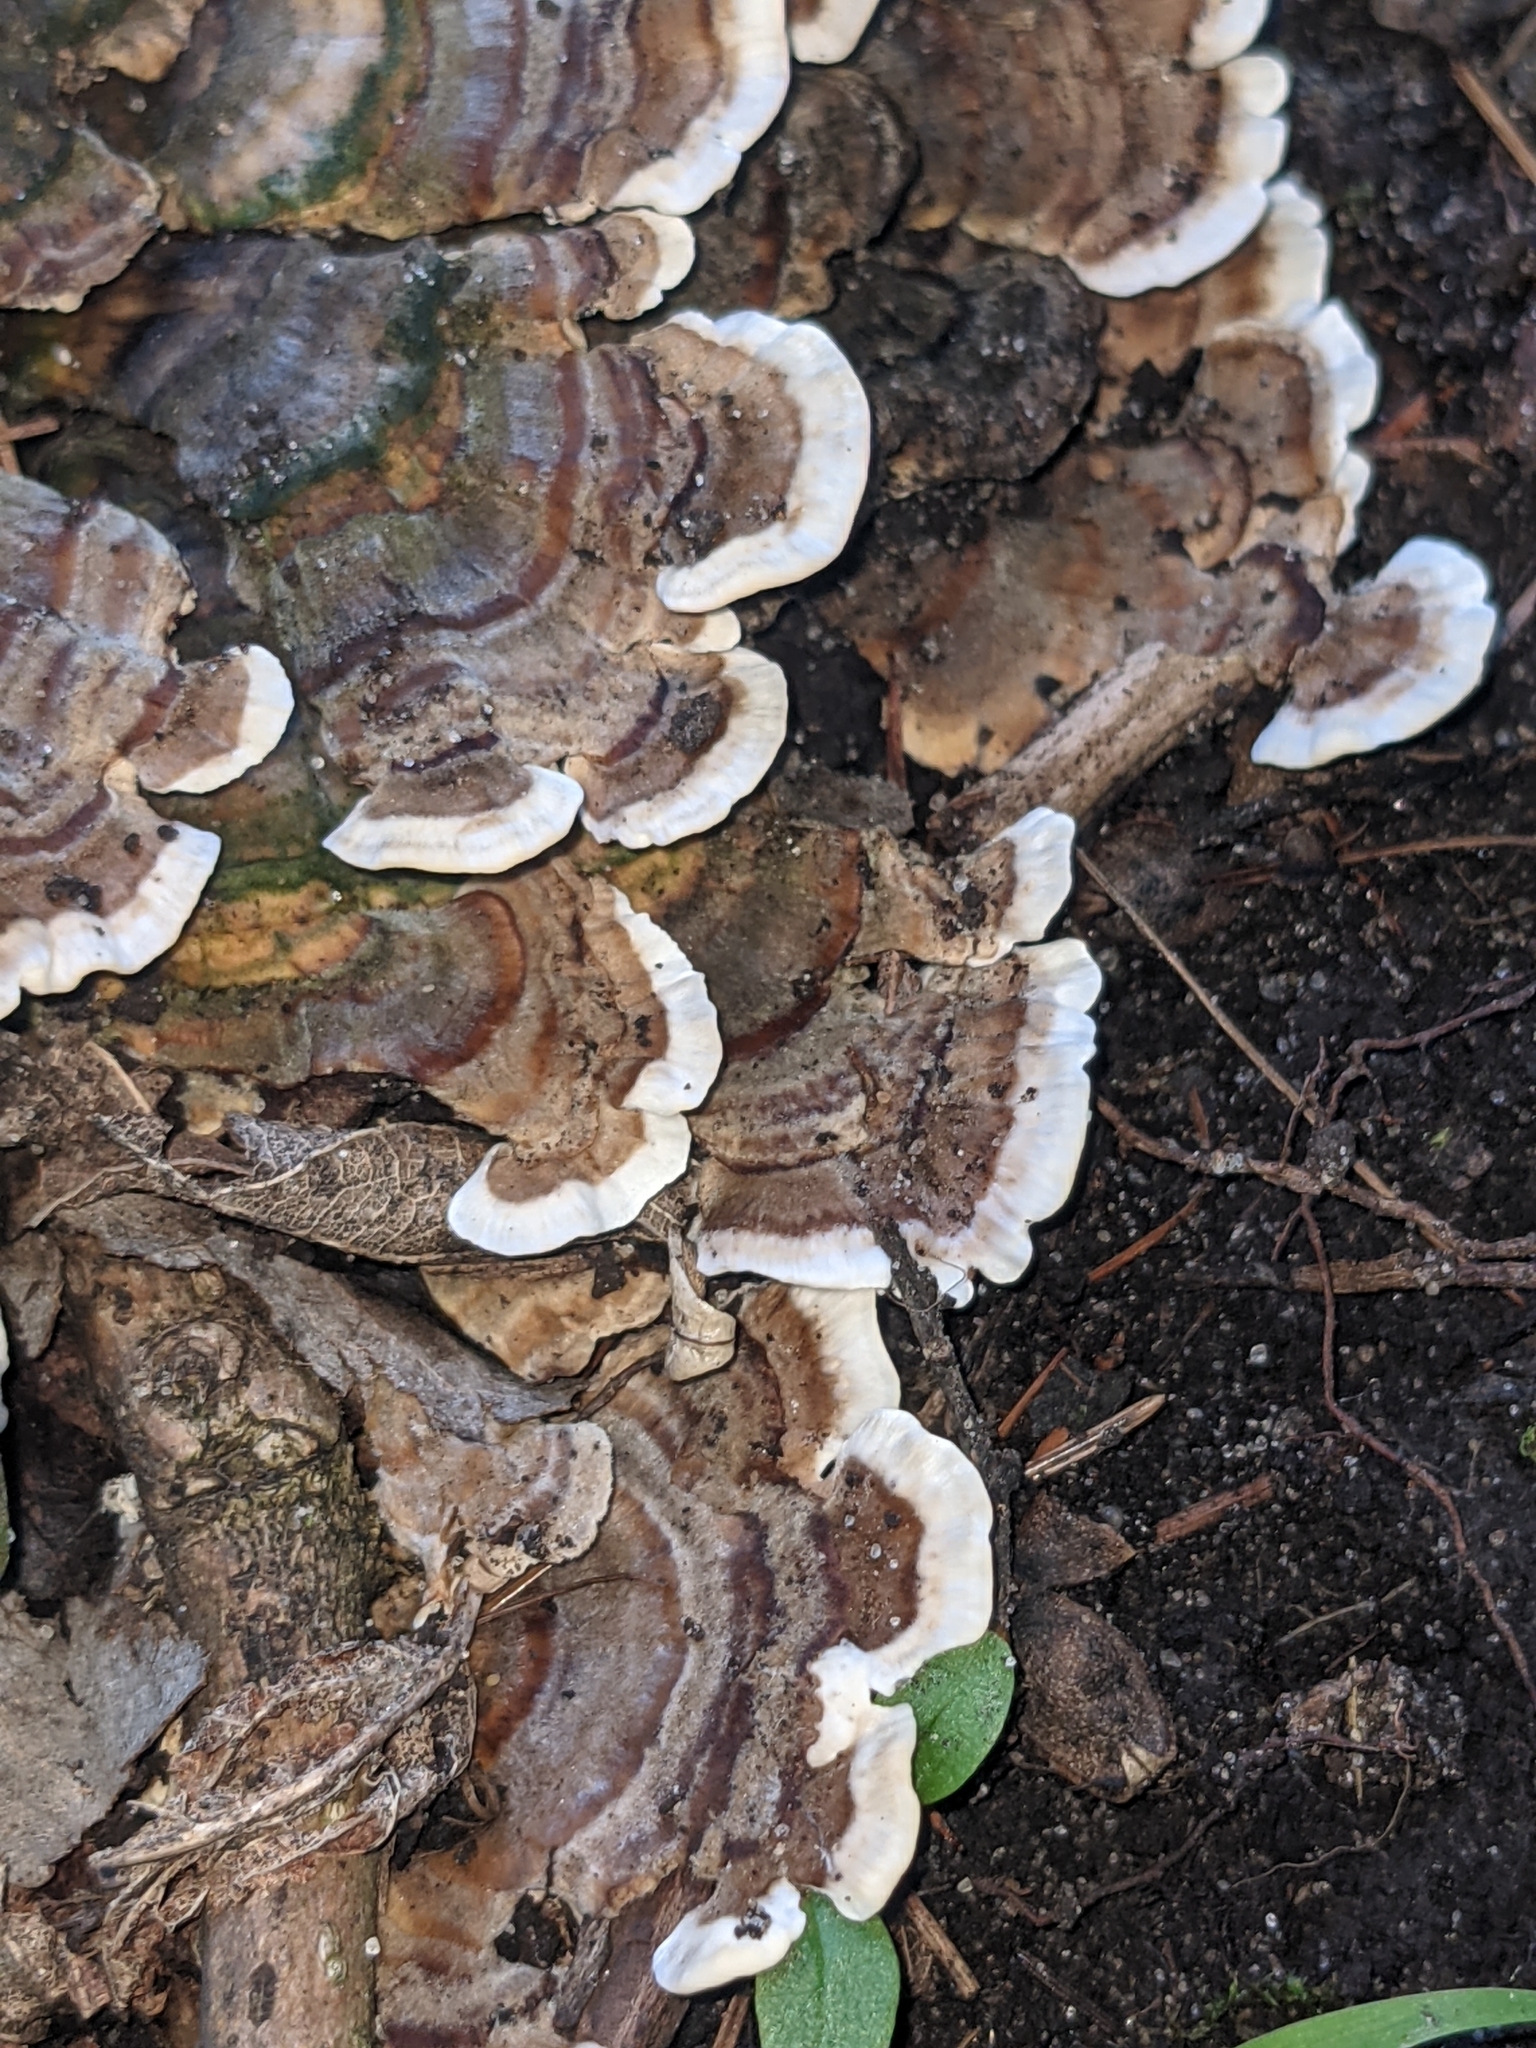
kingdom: Fungi
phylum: Basidiomycota
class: Agaricomycetes
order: Polyporales
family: Polyporaceae
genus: Trametes
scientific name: Trametes versicolor
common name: Turkeytail
